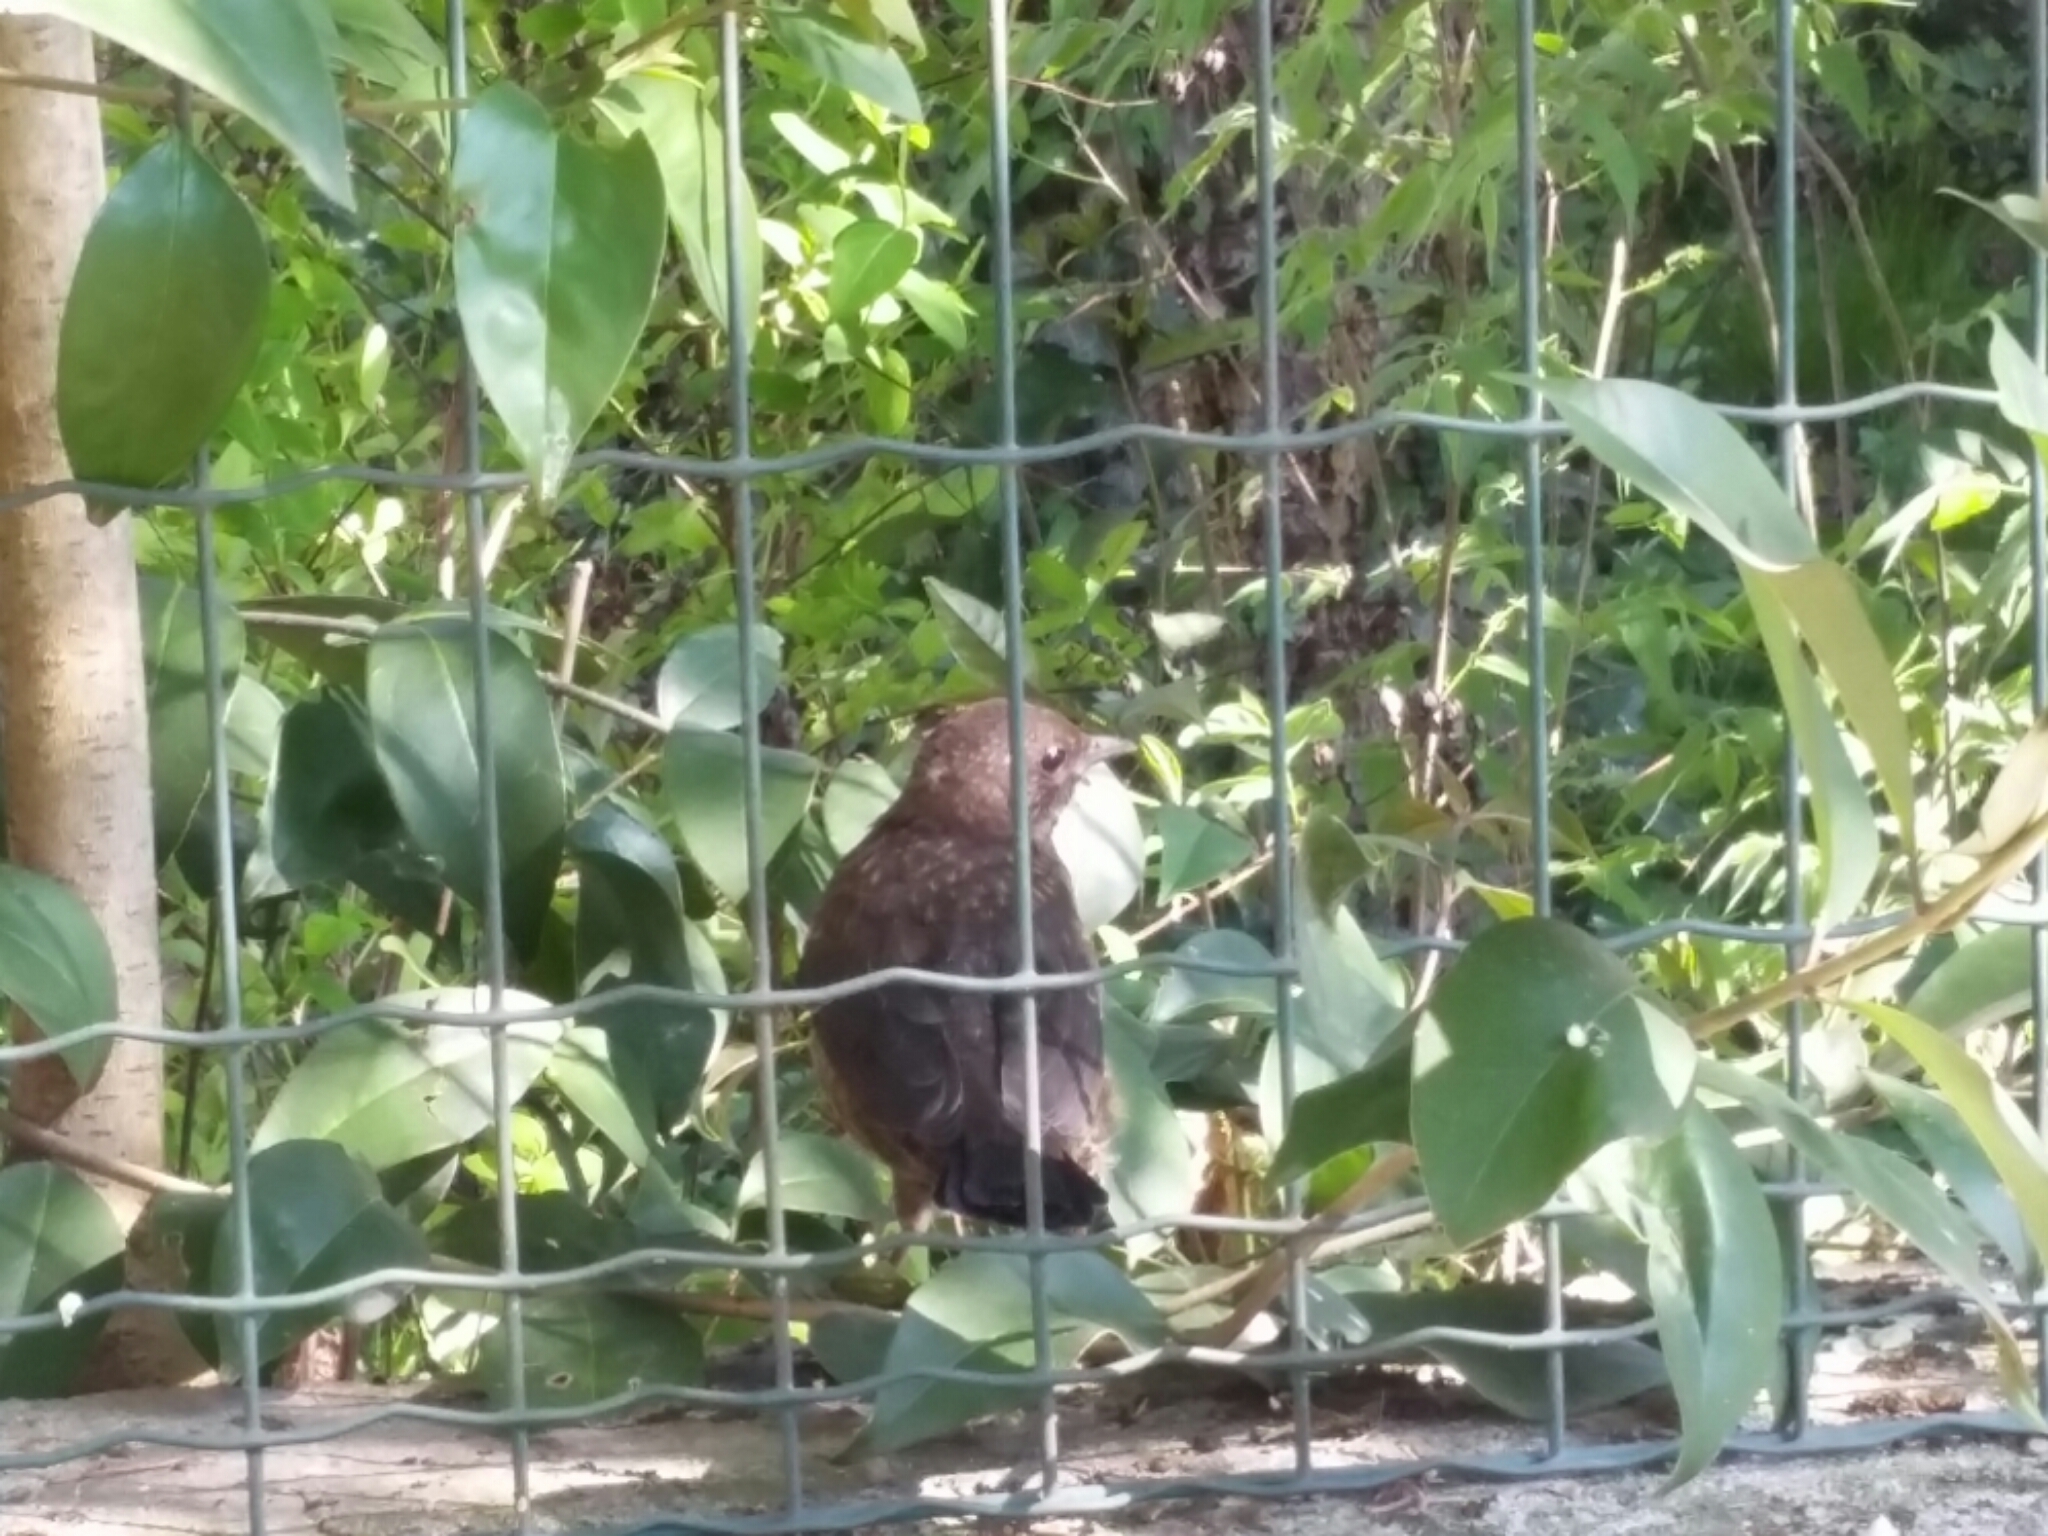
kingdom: Animalia
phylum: Chordata
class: Aves
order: Passeriformes
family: Turdidae
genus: Turdus
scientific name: Turdus merula
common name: Common blackbird
